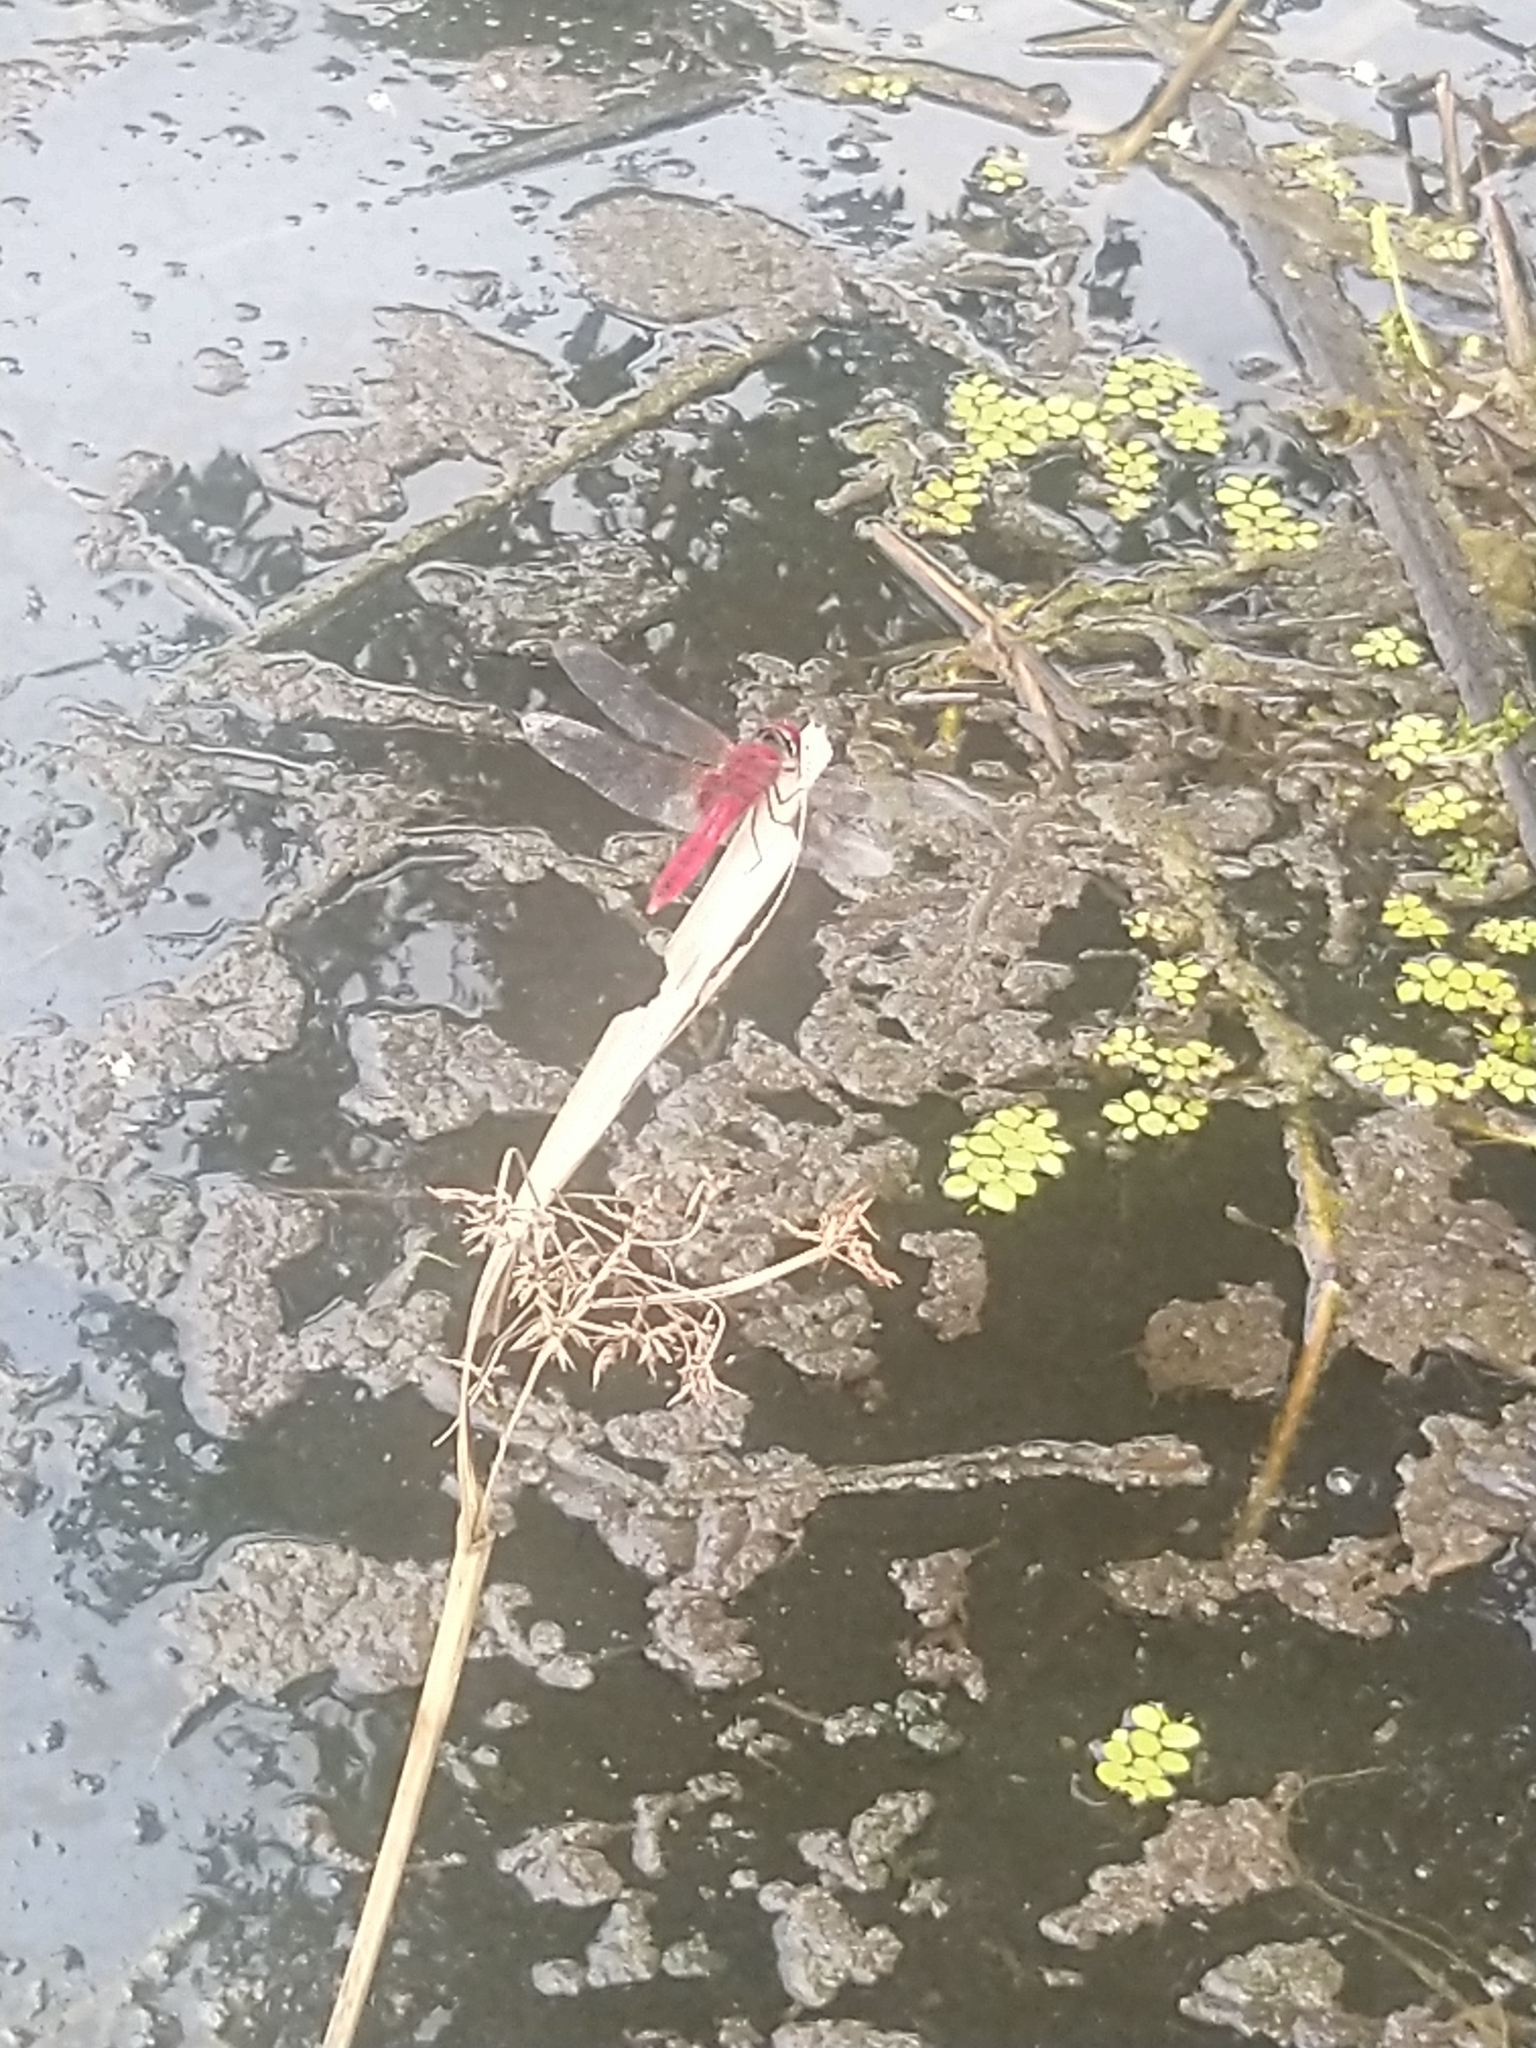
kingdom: Animalia
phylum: Arthropoda
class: Insecta
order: Odonata
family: Libellulidae
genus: Urothemis
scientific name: Urothemis signata
